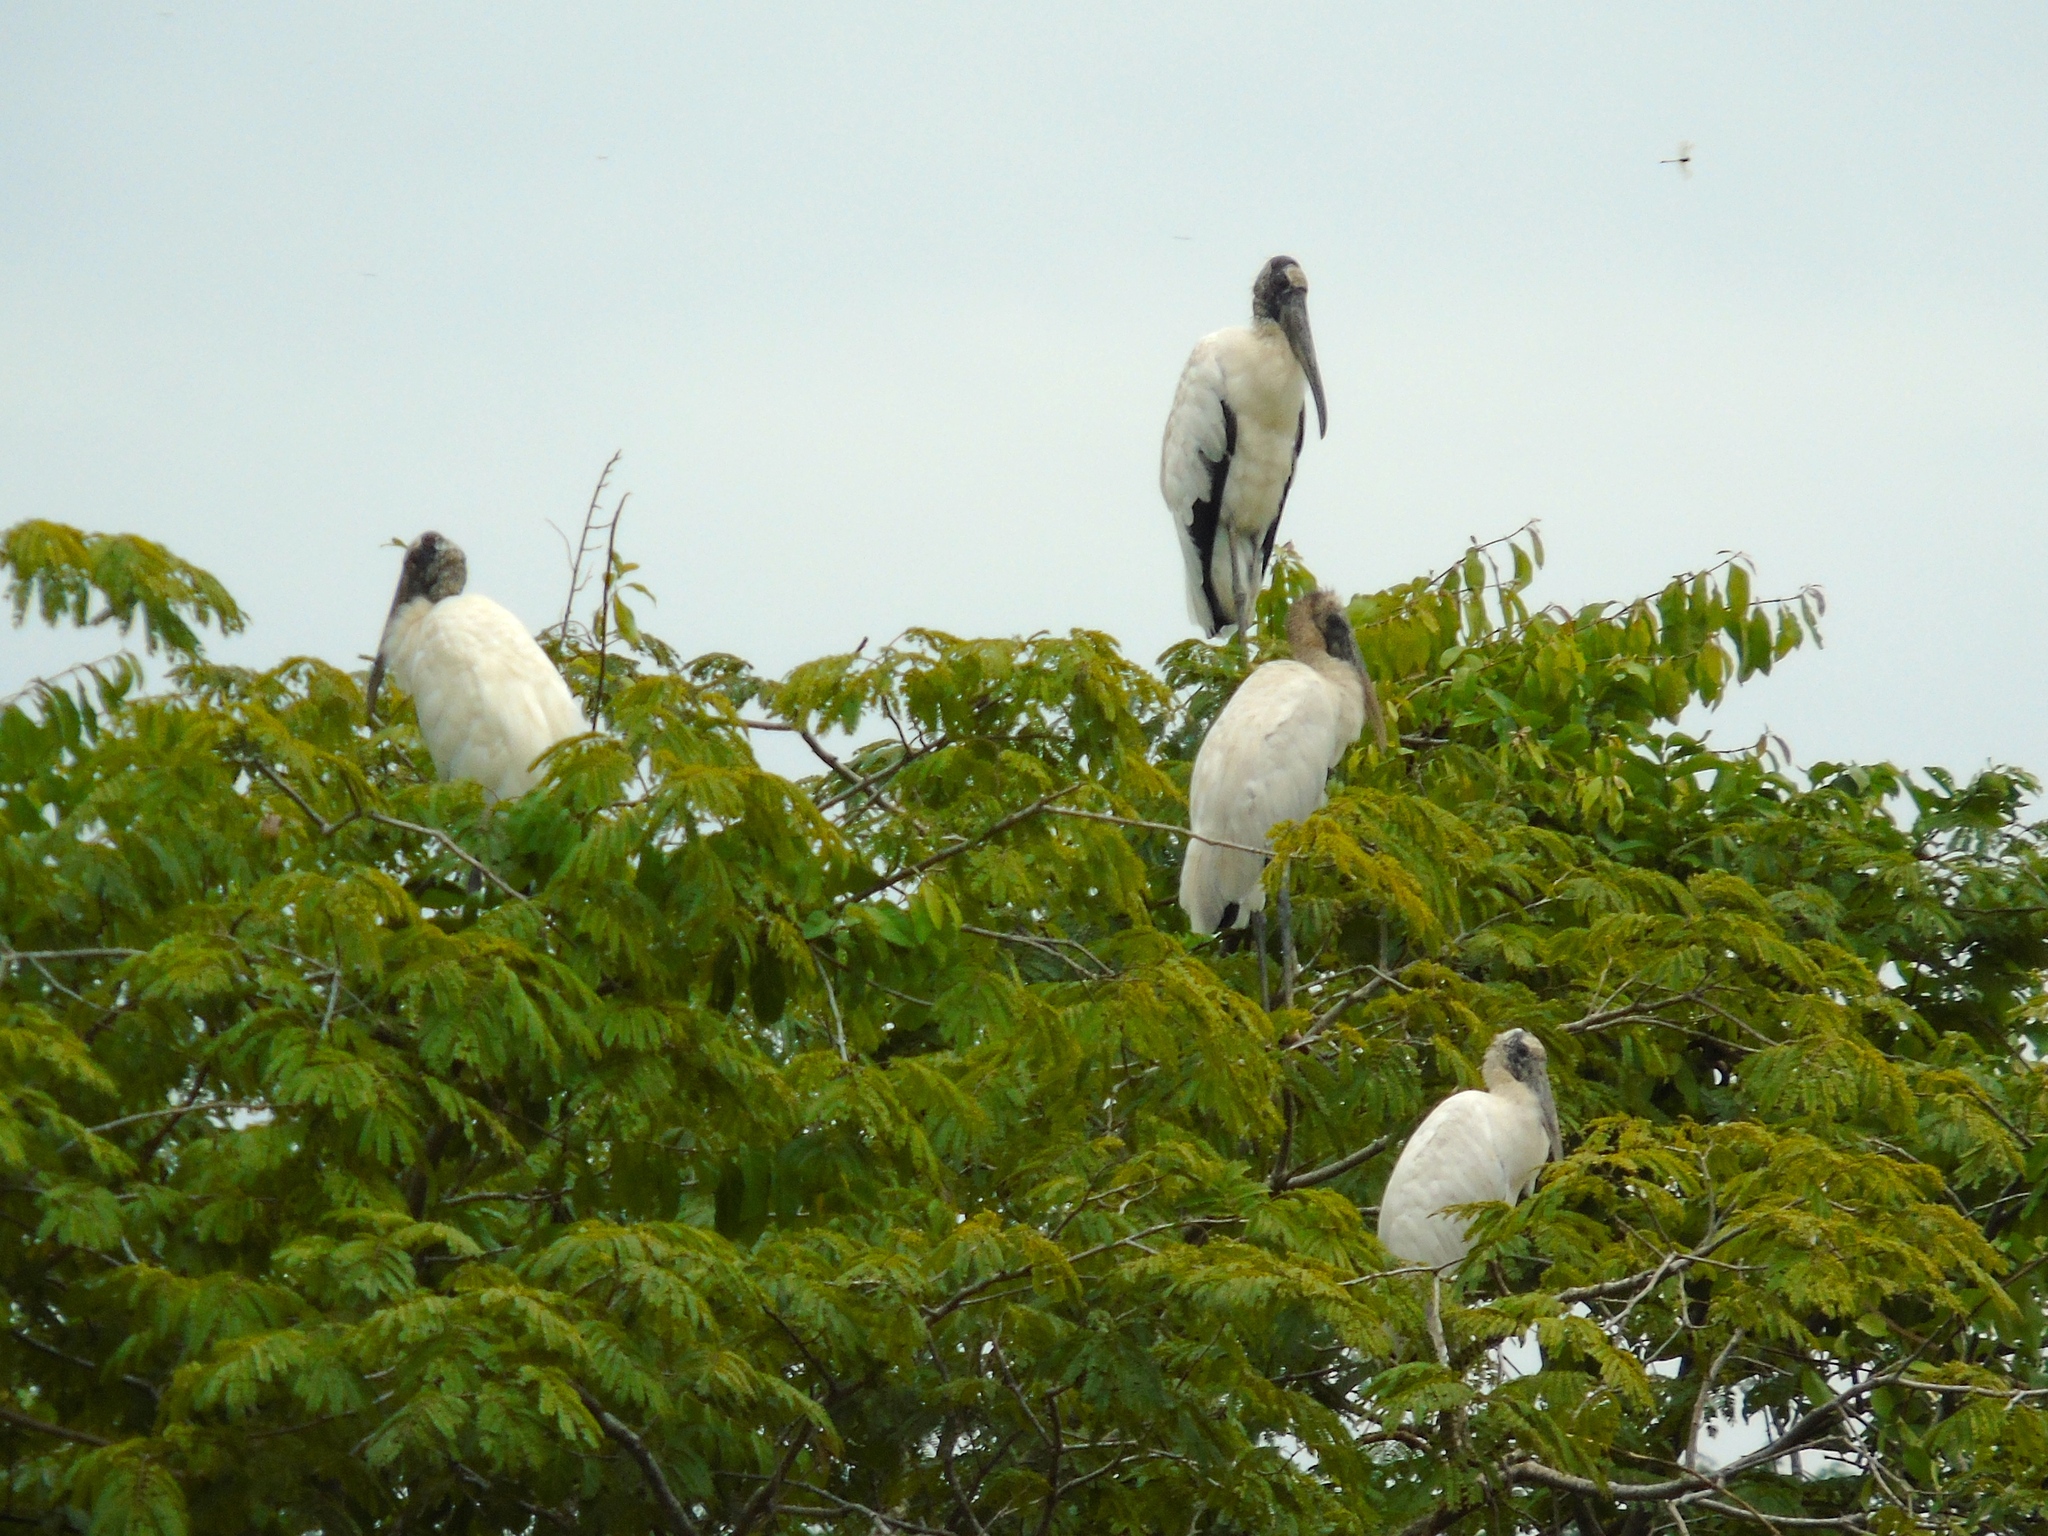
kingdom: Animalia
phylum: Chordata
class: Aves
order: Ciconiiformes
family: Ciconiidae
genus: Mycteria
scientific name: Mycteria americana
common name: Wood stork
